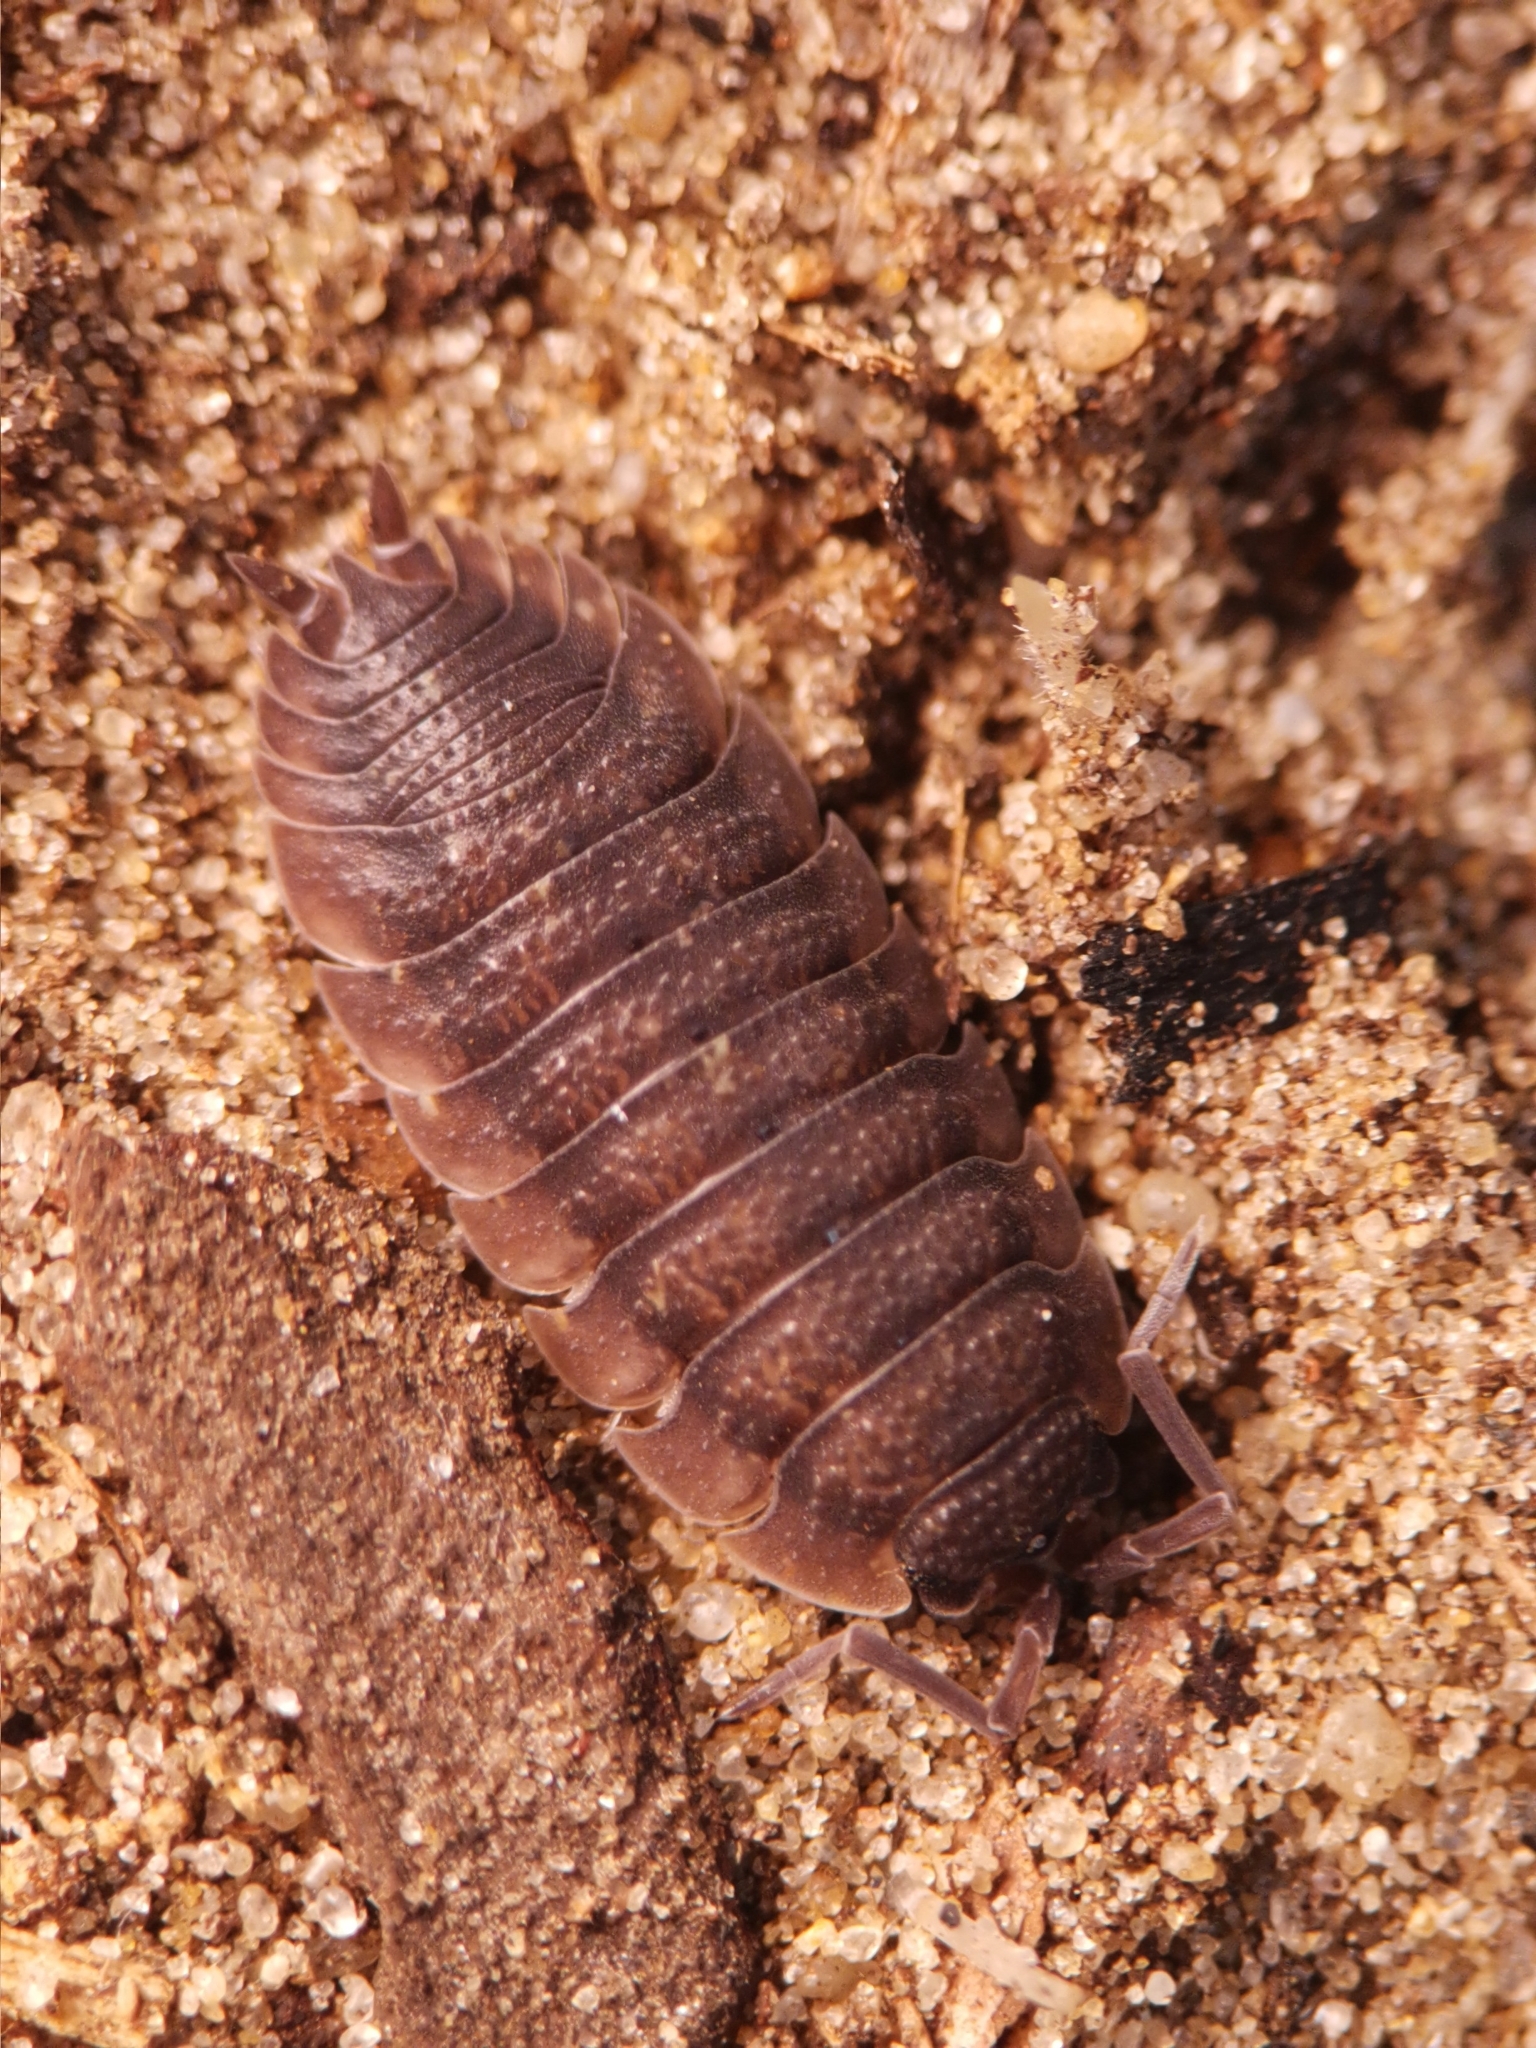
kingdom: Animalia
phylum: Arthropoda
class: Malacostraca
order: Isopoda
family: Porcellionidae
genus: Porcellio
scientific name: Porcellio scaber
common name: Common rough woodlouse
